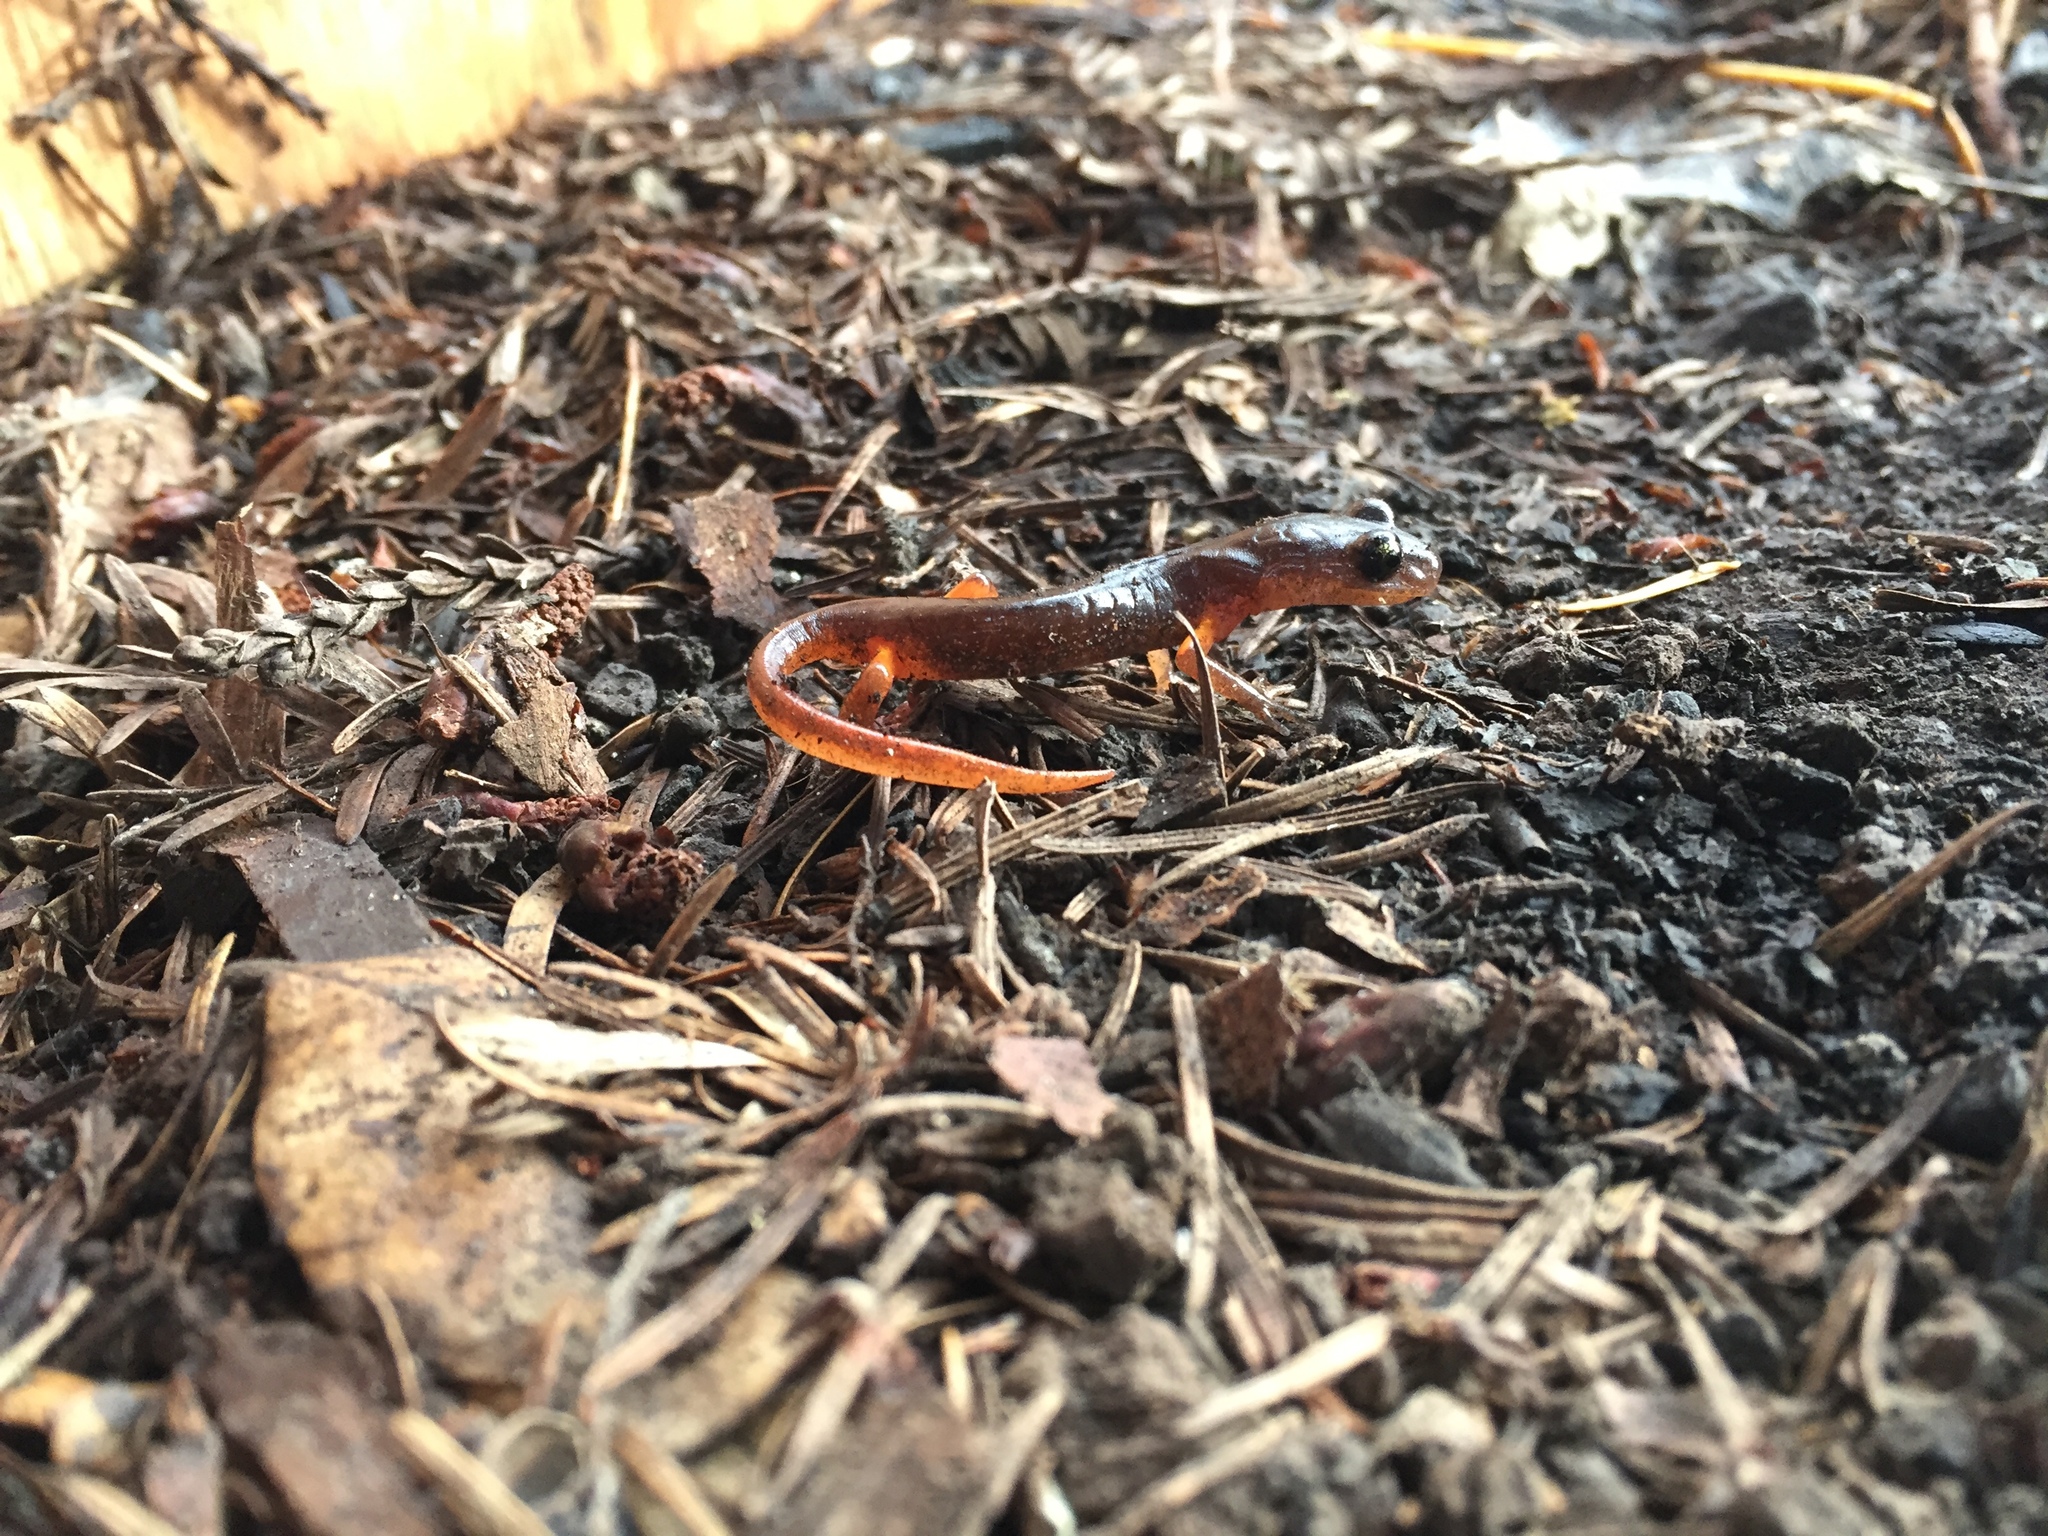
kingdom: Animalia
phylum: Chordata
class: Amphibia
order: Caudata
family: Plethodontidae
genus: Ensatina
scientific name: Ensatina eschscholtzii
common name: Ensatina
